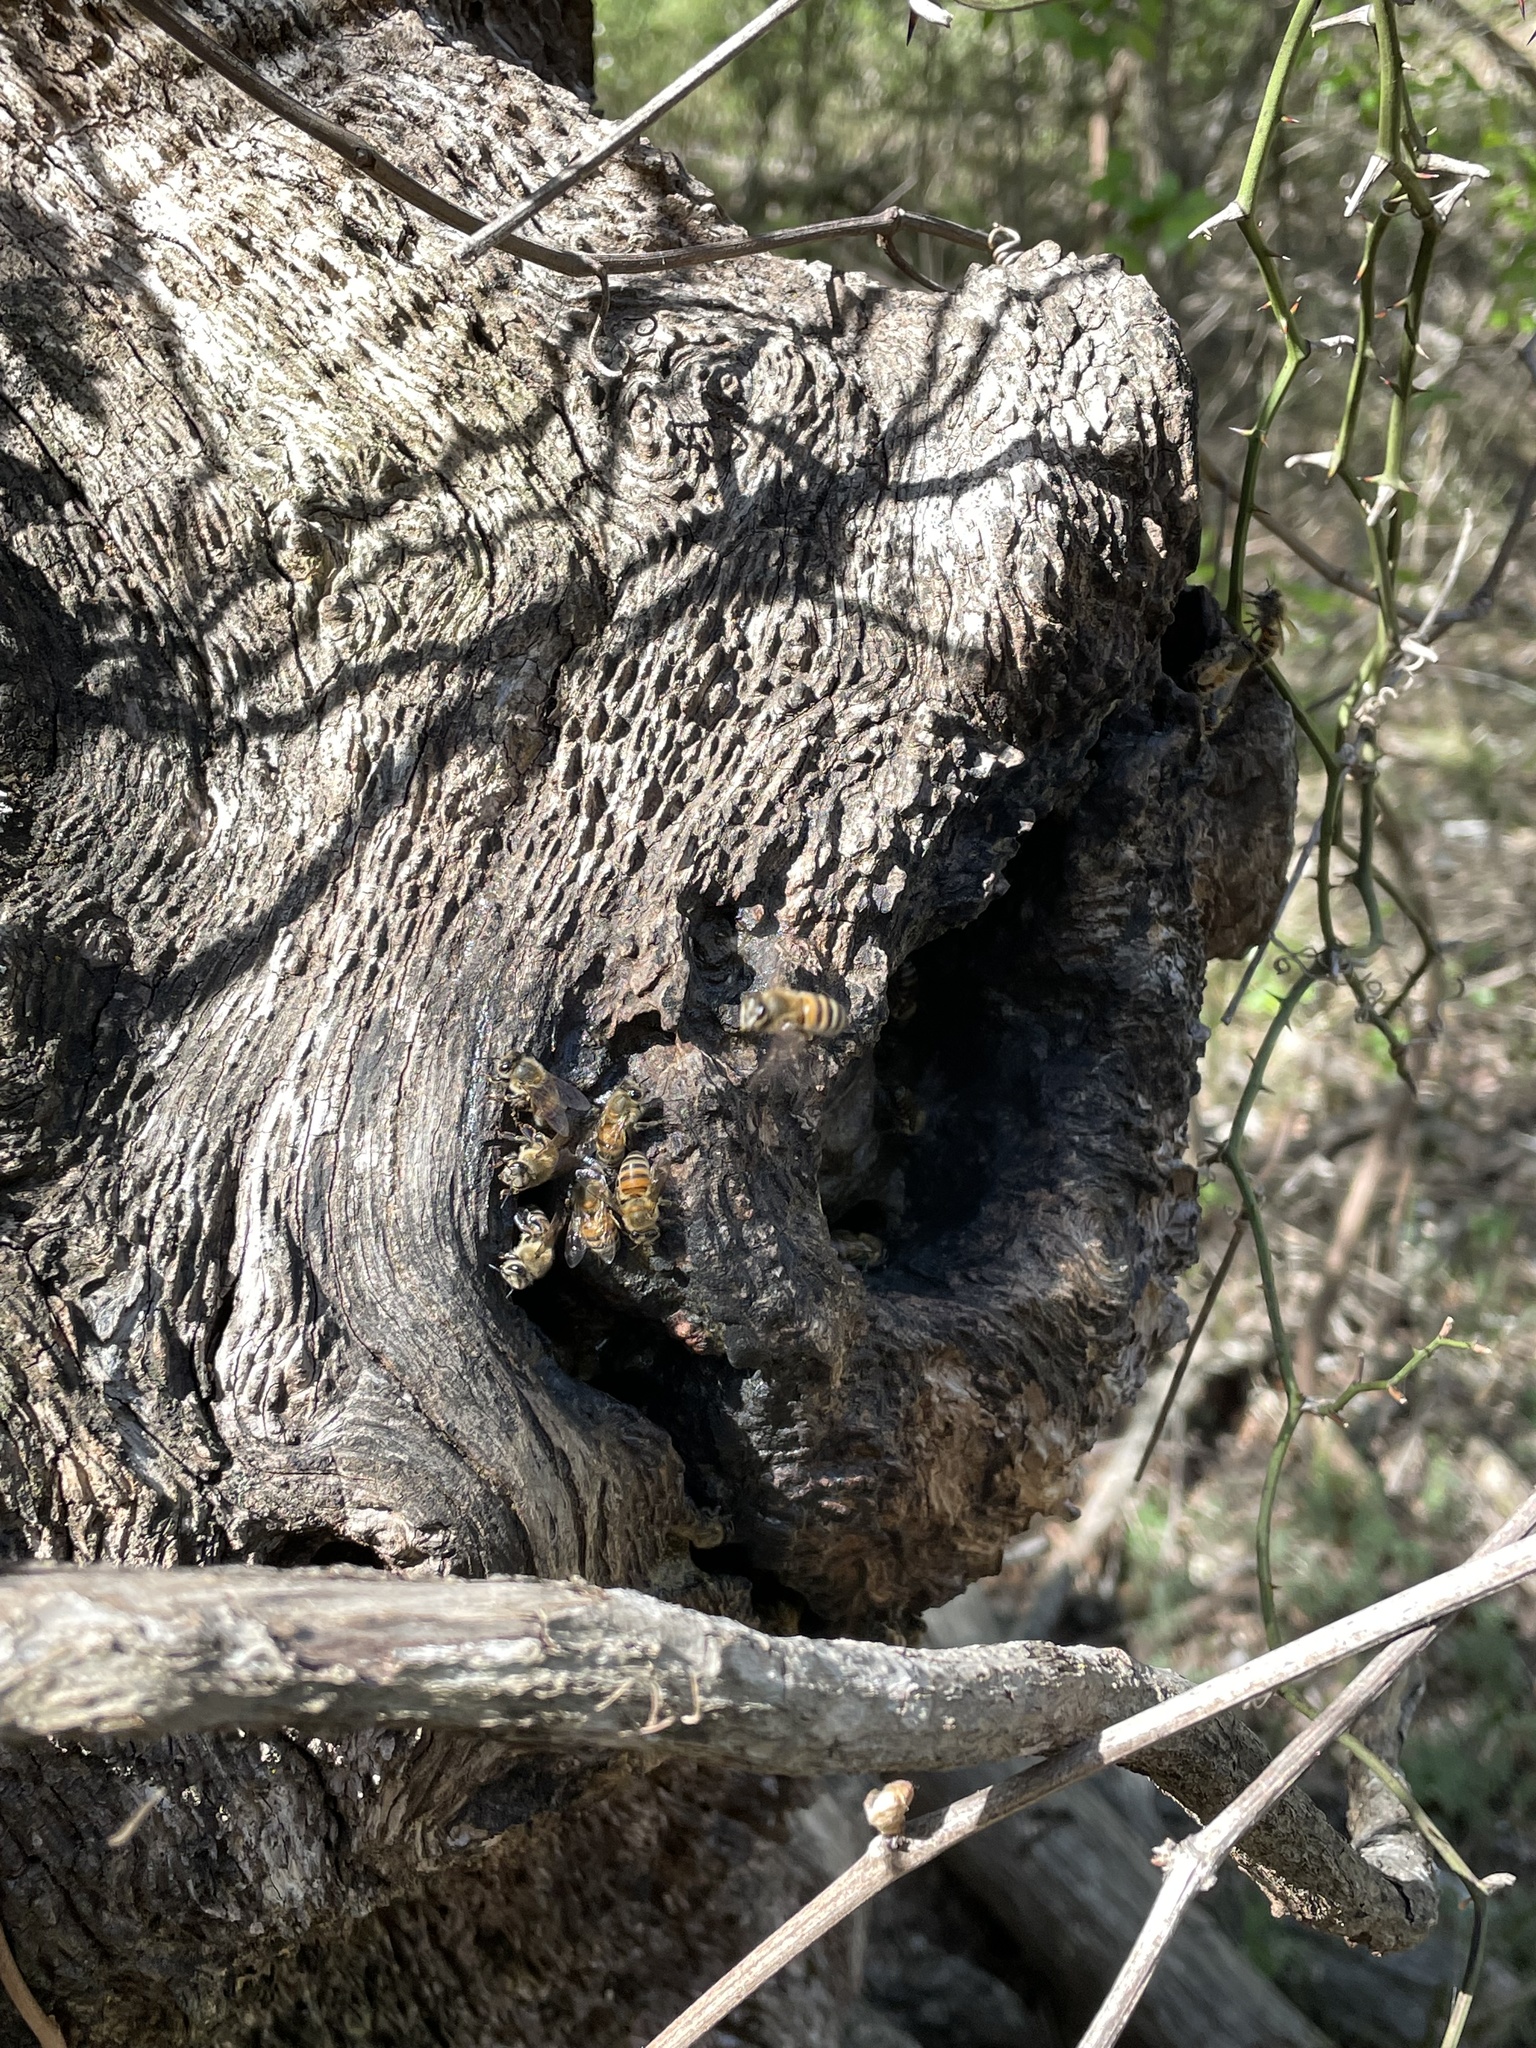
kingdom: Animalia
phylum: Arthropoda
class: Insecta
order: Hymenoptera
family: Apidae
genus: Apis
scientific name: Apis mellifera
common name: Honey bee
